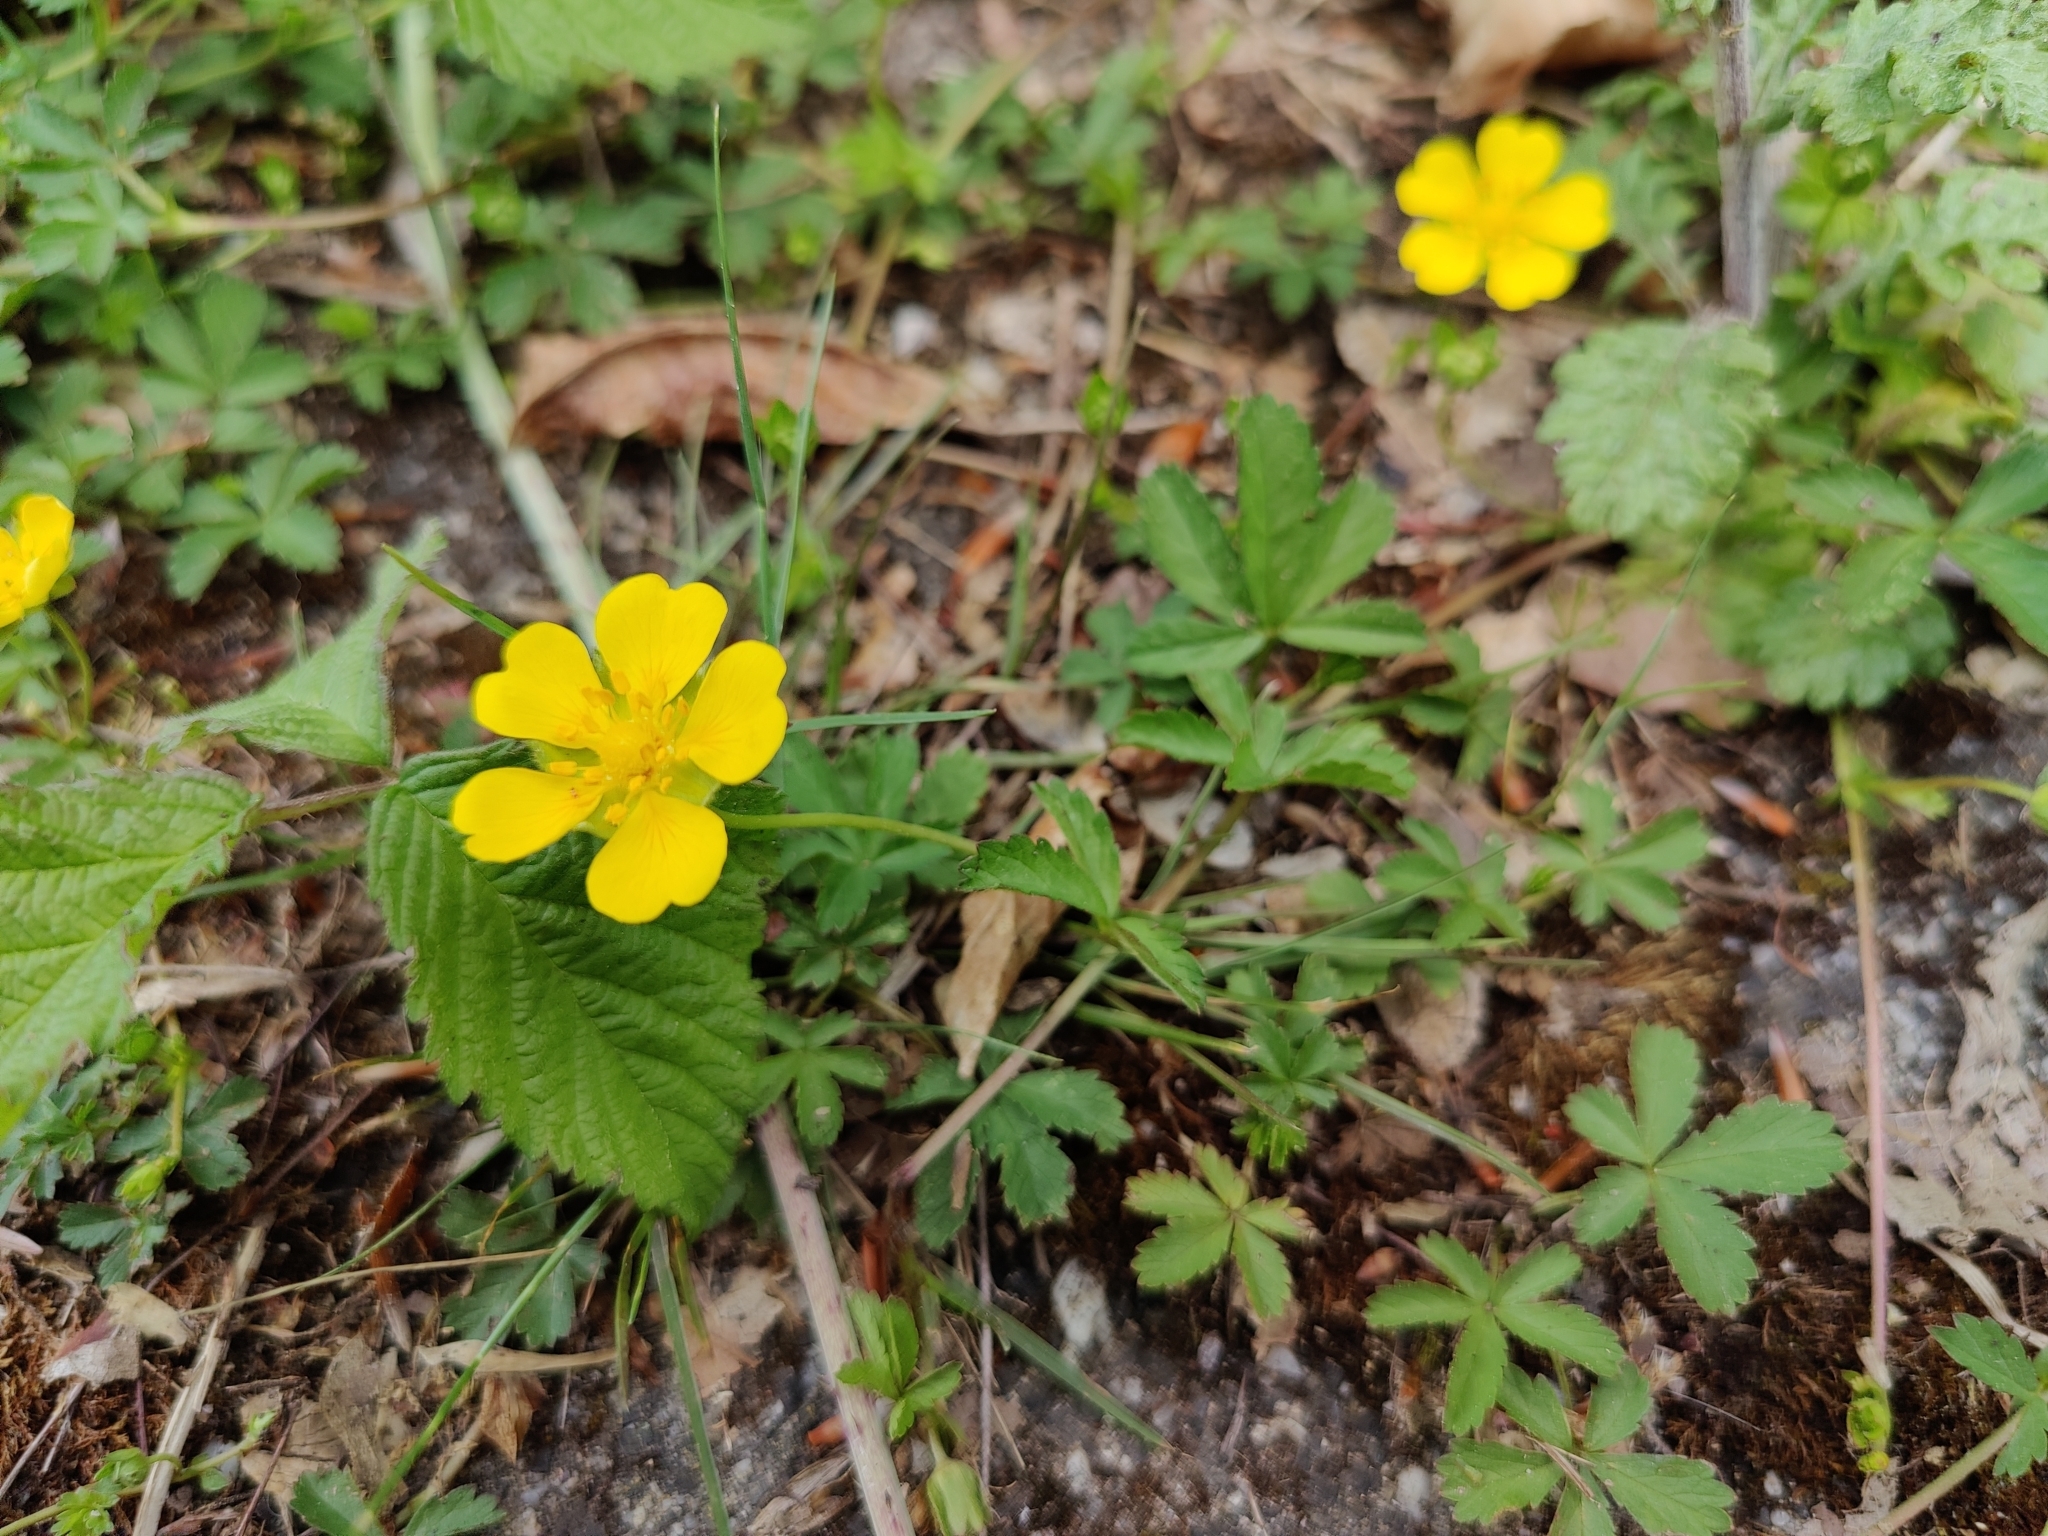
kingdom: Plantae
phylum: Tracheophyta
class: Magnoliopsida
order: Rosales
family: Rosaceae
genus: Potentilla
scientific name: Potentilla reptans
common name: Creeping cinquefoil
